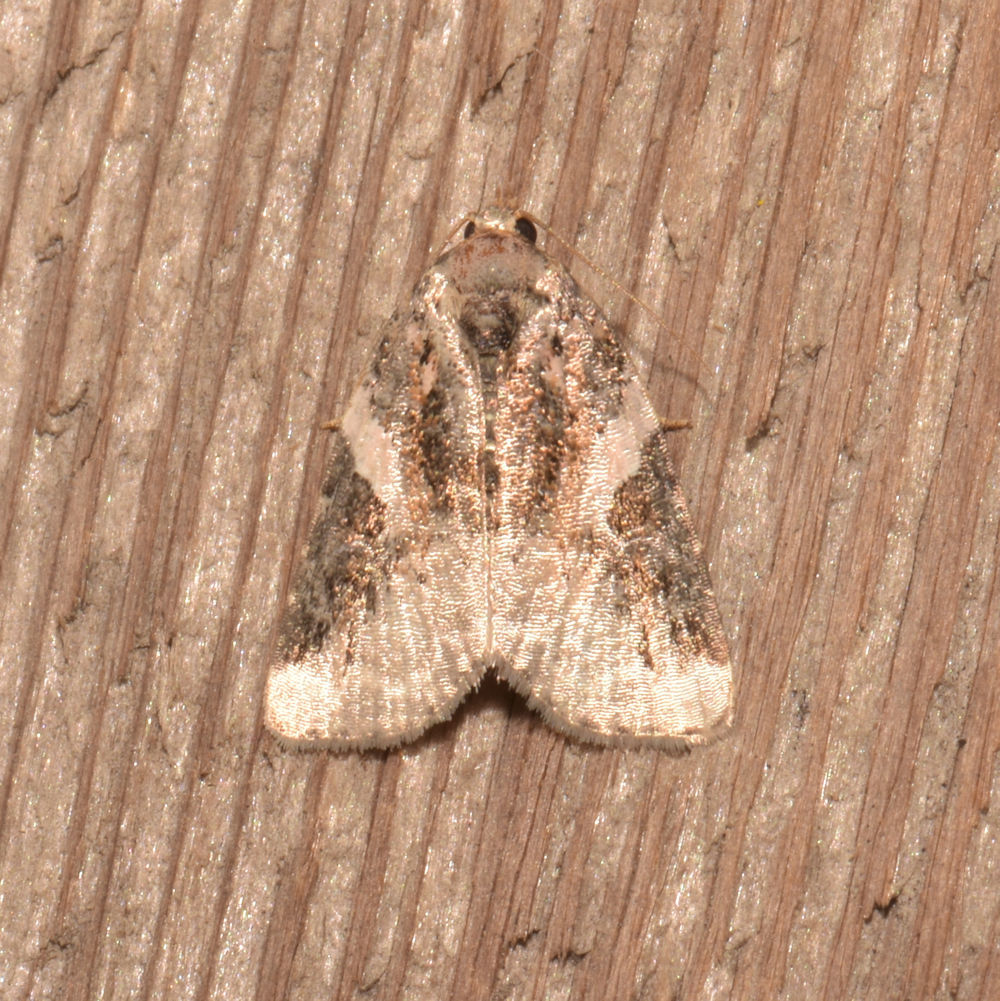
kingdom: Animalia
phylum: Arthropoda
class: Insecta
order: Lepidoptera
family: Noctuidae
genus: Pseudeustrotia
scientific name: Pseudeustrotia carneola
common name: Pink-barred lithacodia moth
